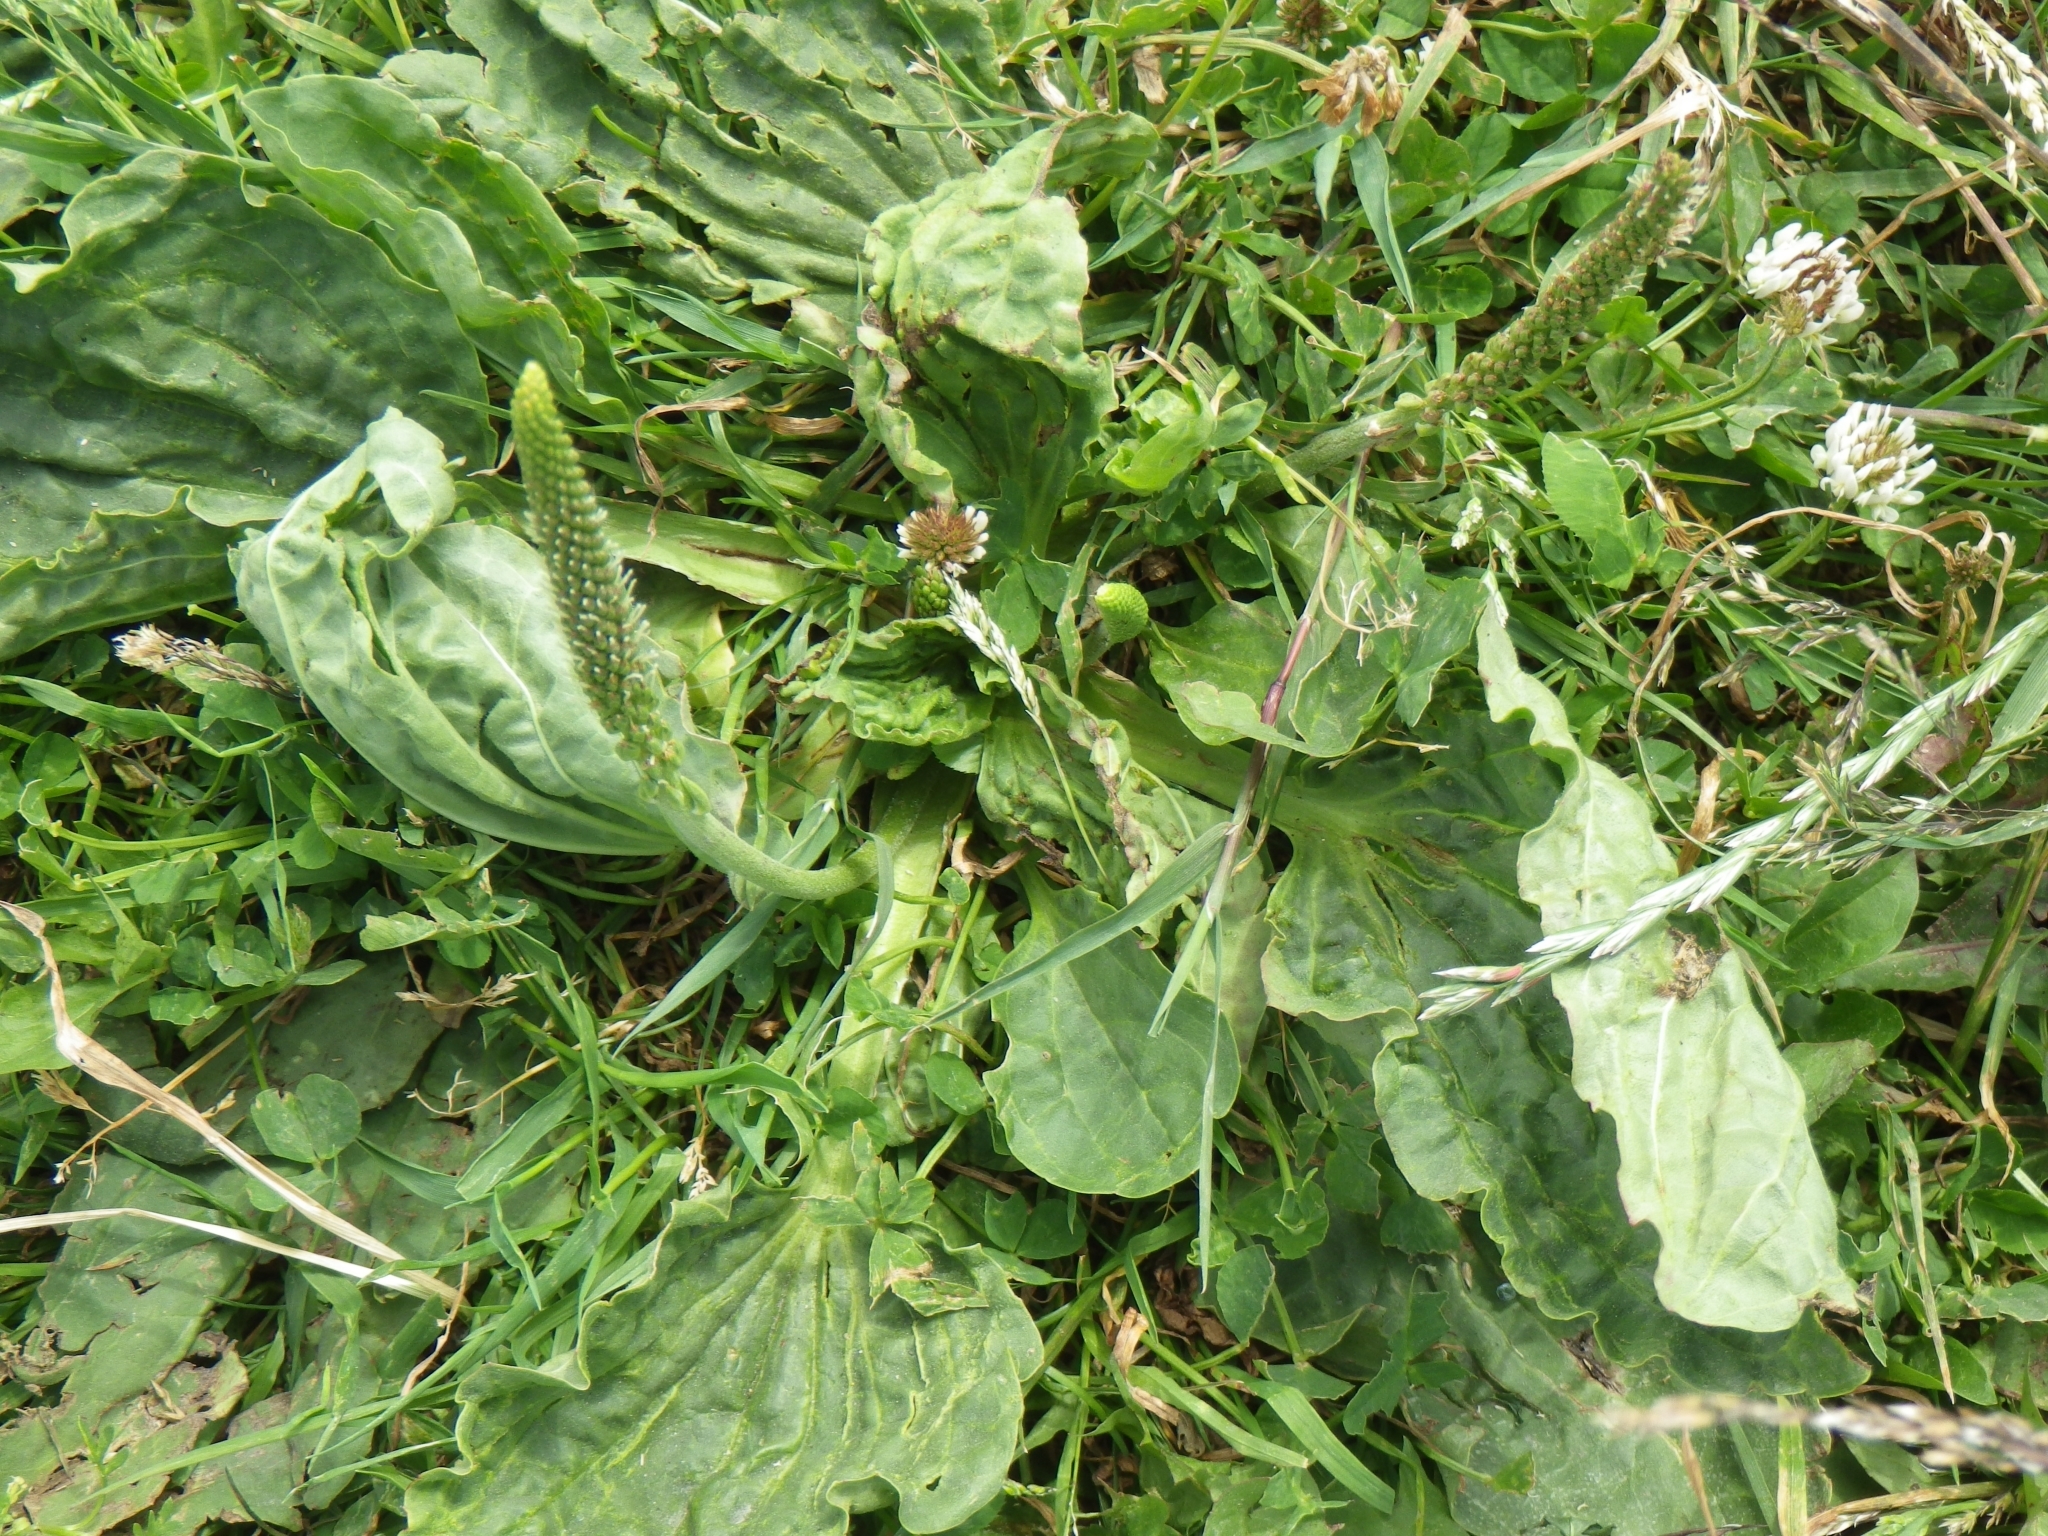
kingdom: Plantae
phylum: Tracheophyta
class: Magnoliopsida
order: Lamiales
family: Plantaginaceae
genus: Plantago
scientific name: Plantago major
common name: Common plantain
